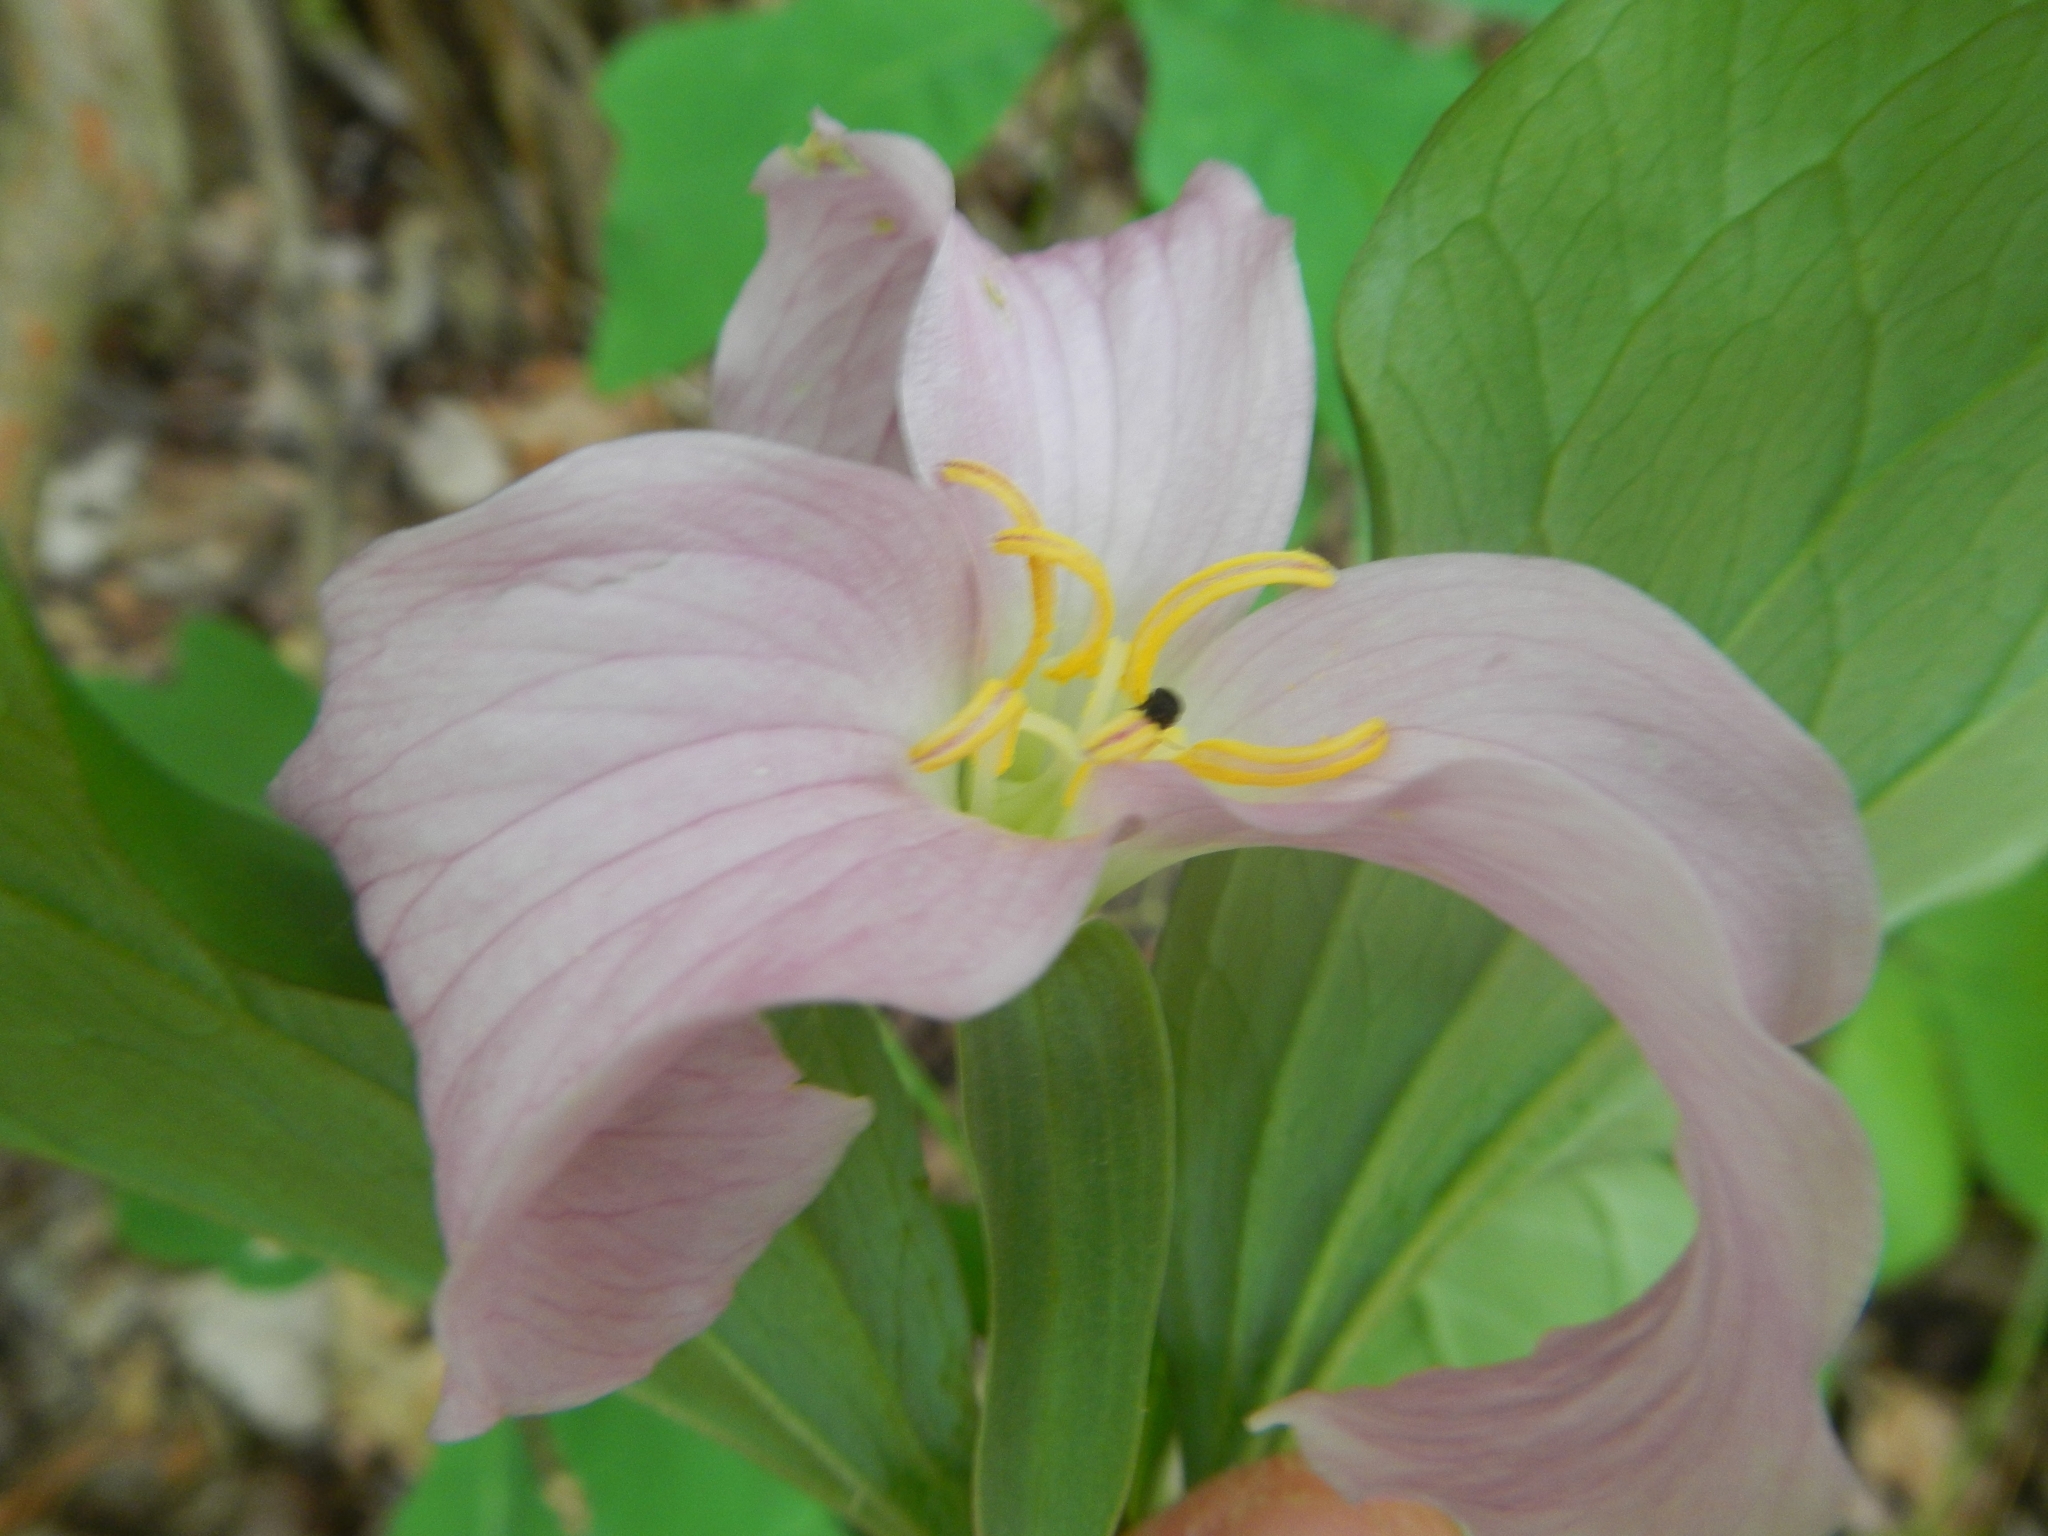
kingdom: Plantae
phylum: Tracheophyta
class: Liliopsida
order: Liliales
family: Melanthiaceae
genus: Trillium
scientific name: Trillium catesbaei
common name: Bashful trillium
